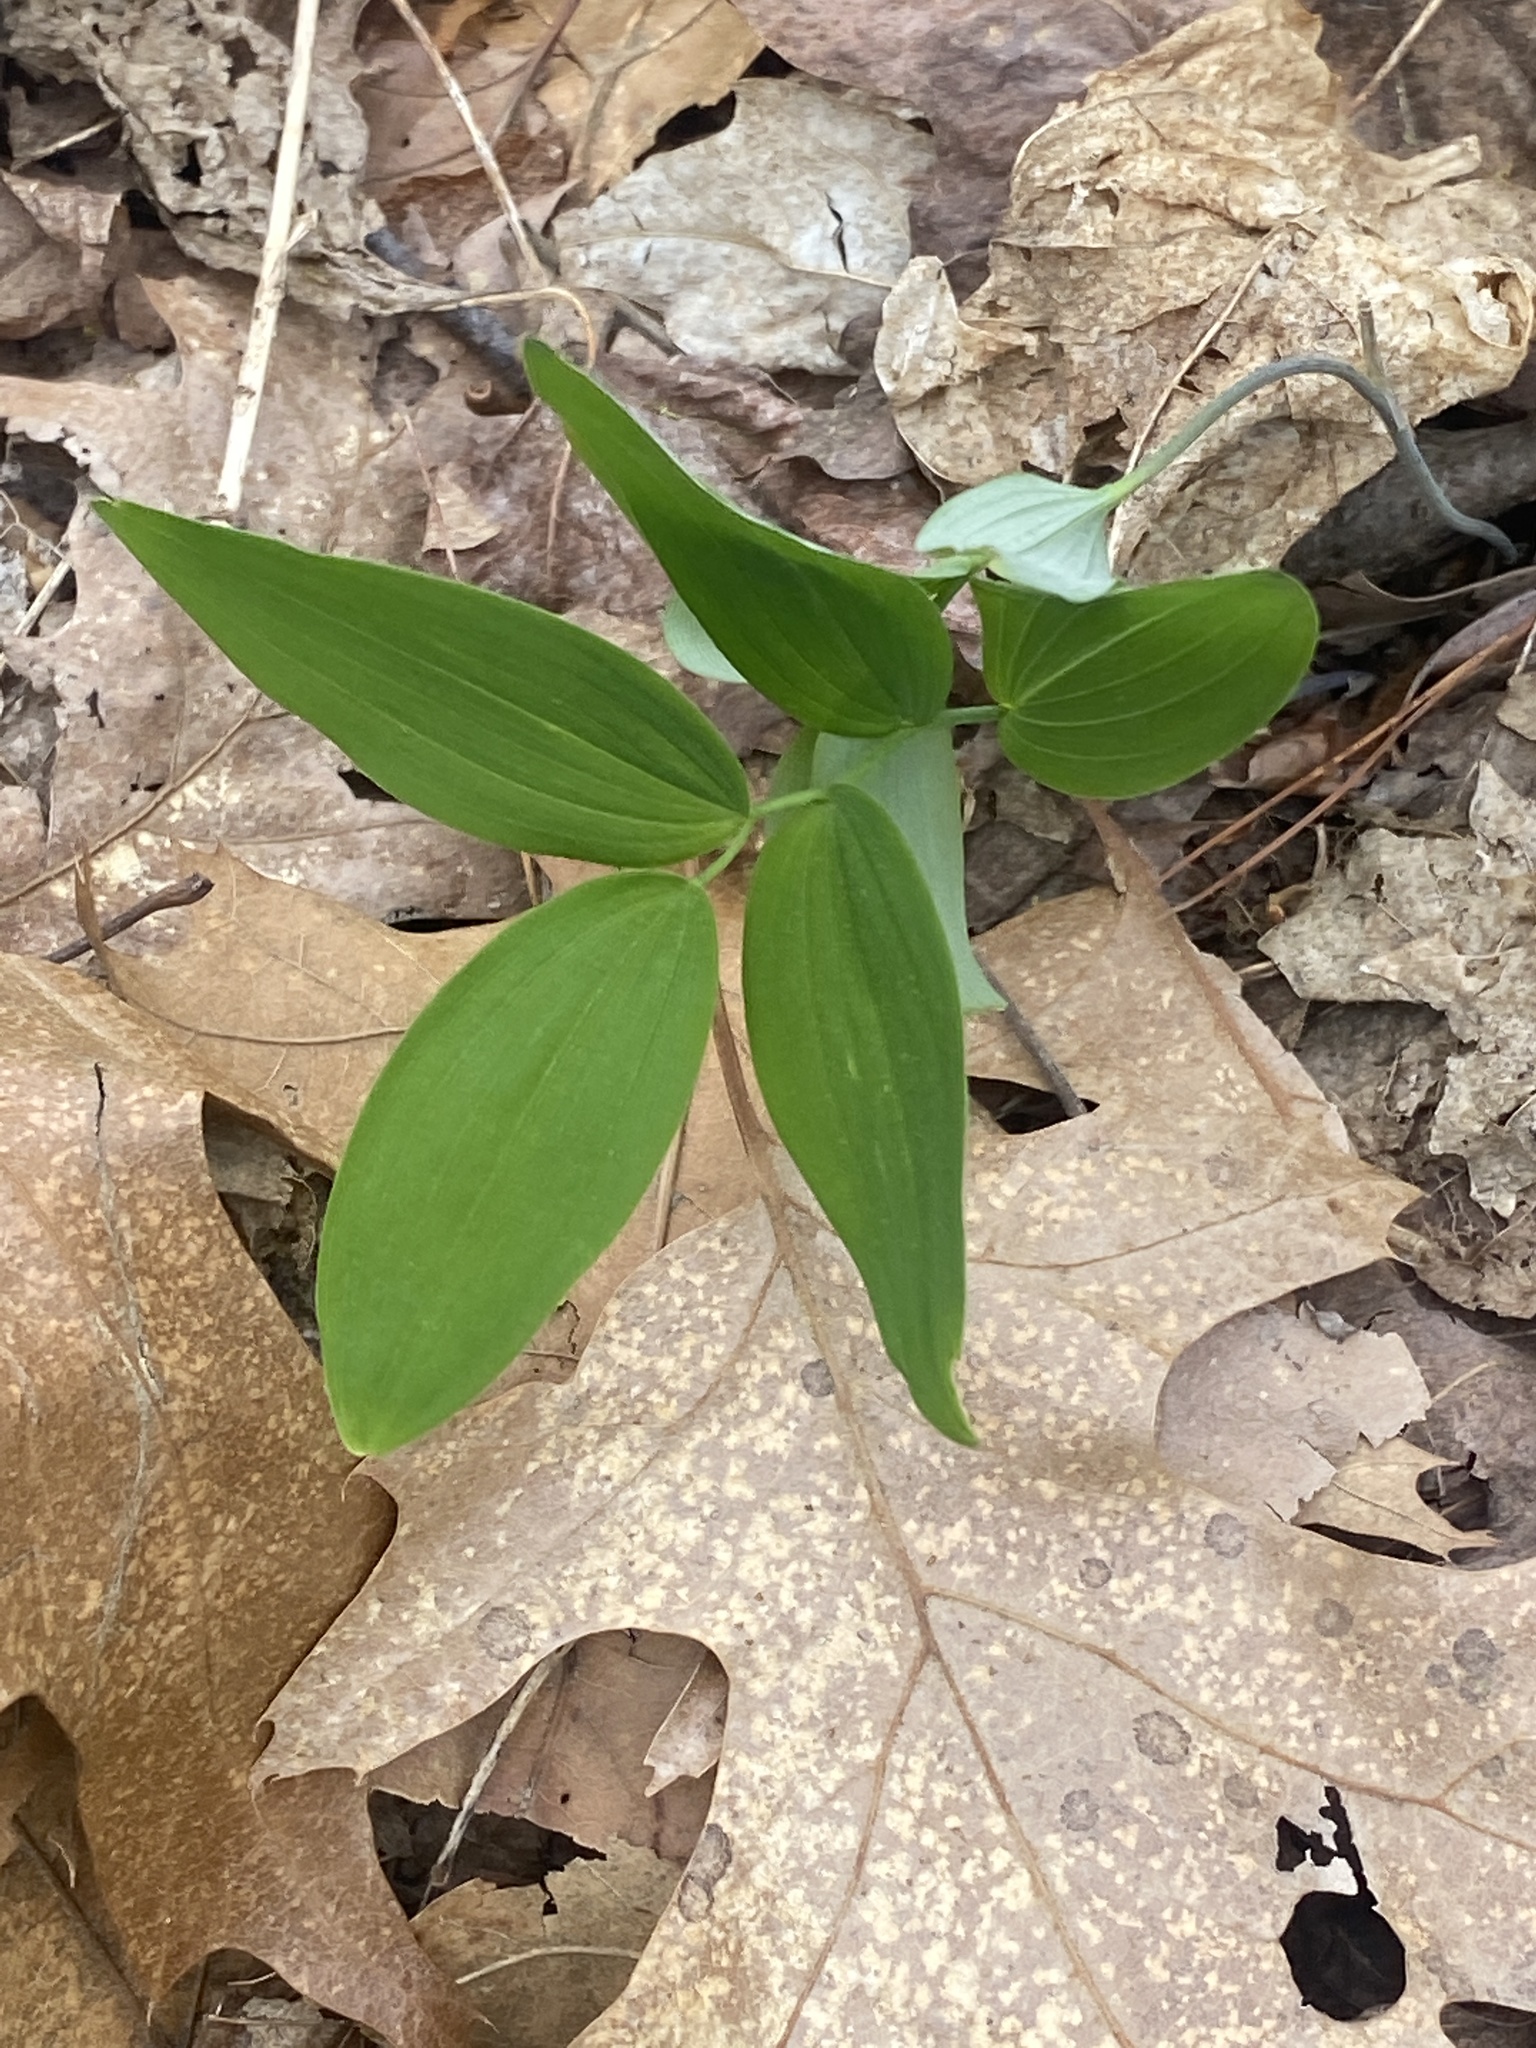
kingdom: Plantae
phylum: Tracheophyta
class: Liliopsida
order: Asparagales
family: Asparagaceae
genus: Polygonatum
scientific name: Polygonatum pubescens
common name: Downy solomon's seal
